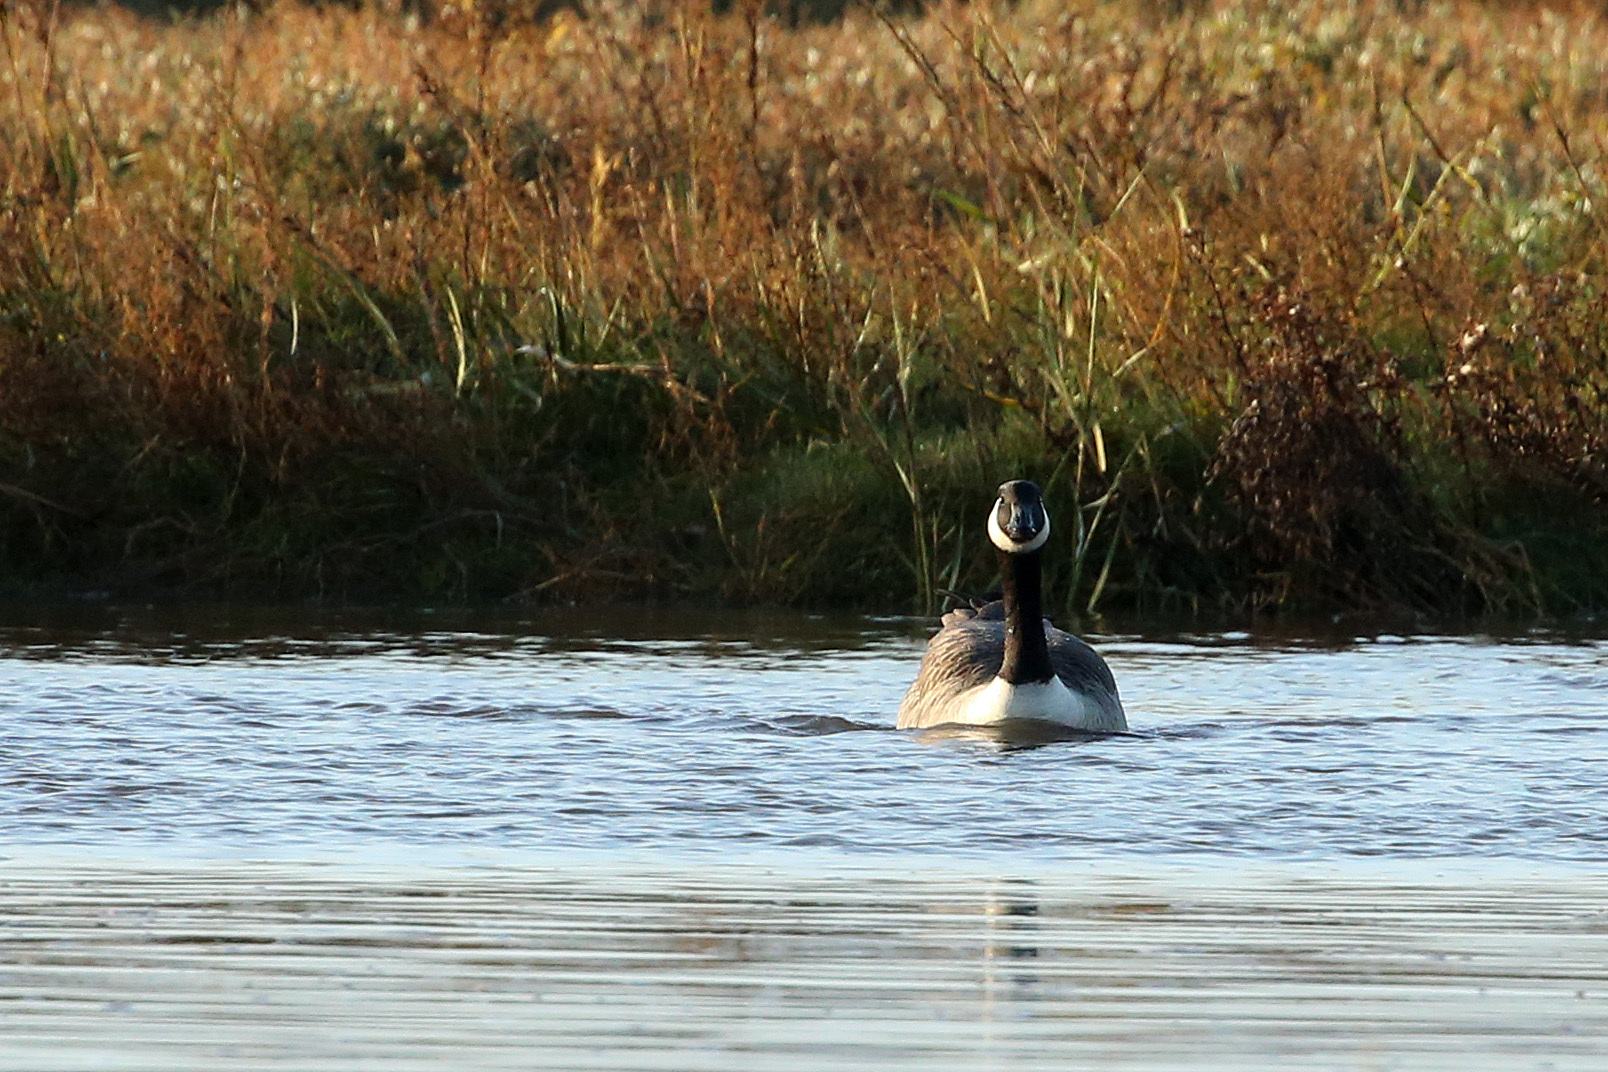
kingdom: Animalia
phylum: Chordata
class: Aves
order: Anseriformes
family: Anatidae
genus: Branta
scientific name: Branta canadensis
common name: Canada goose
